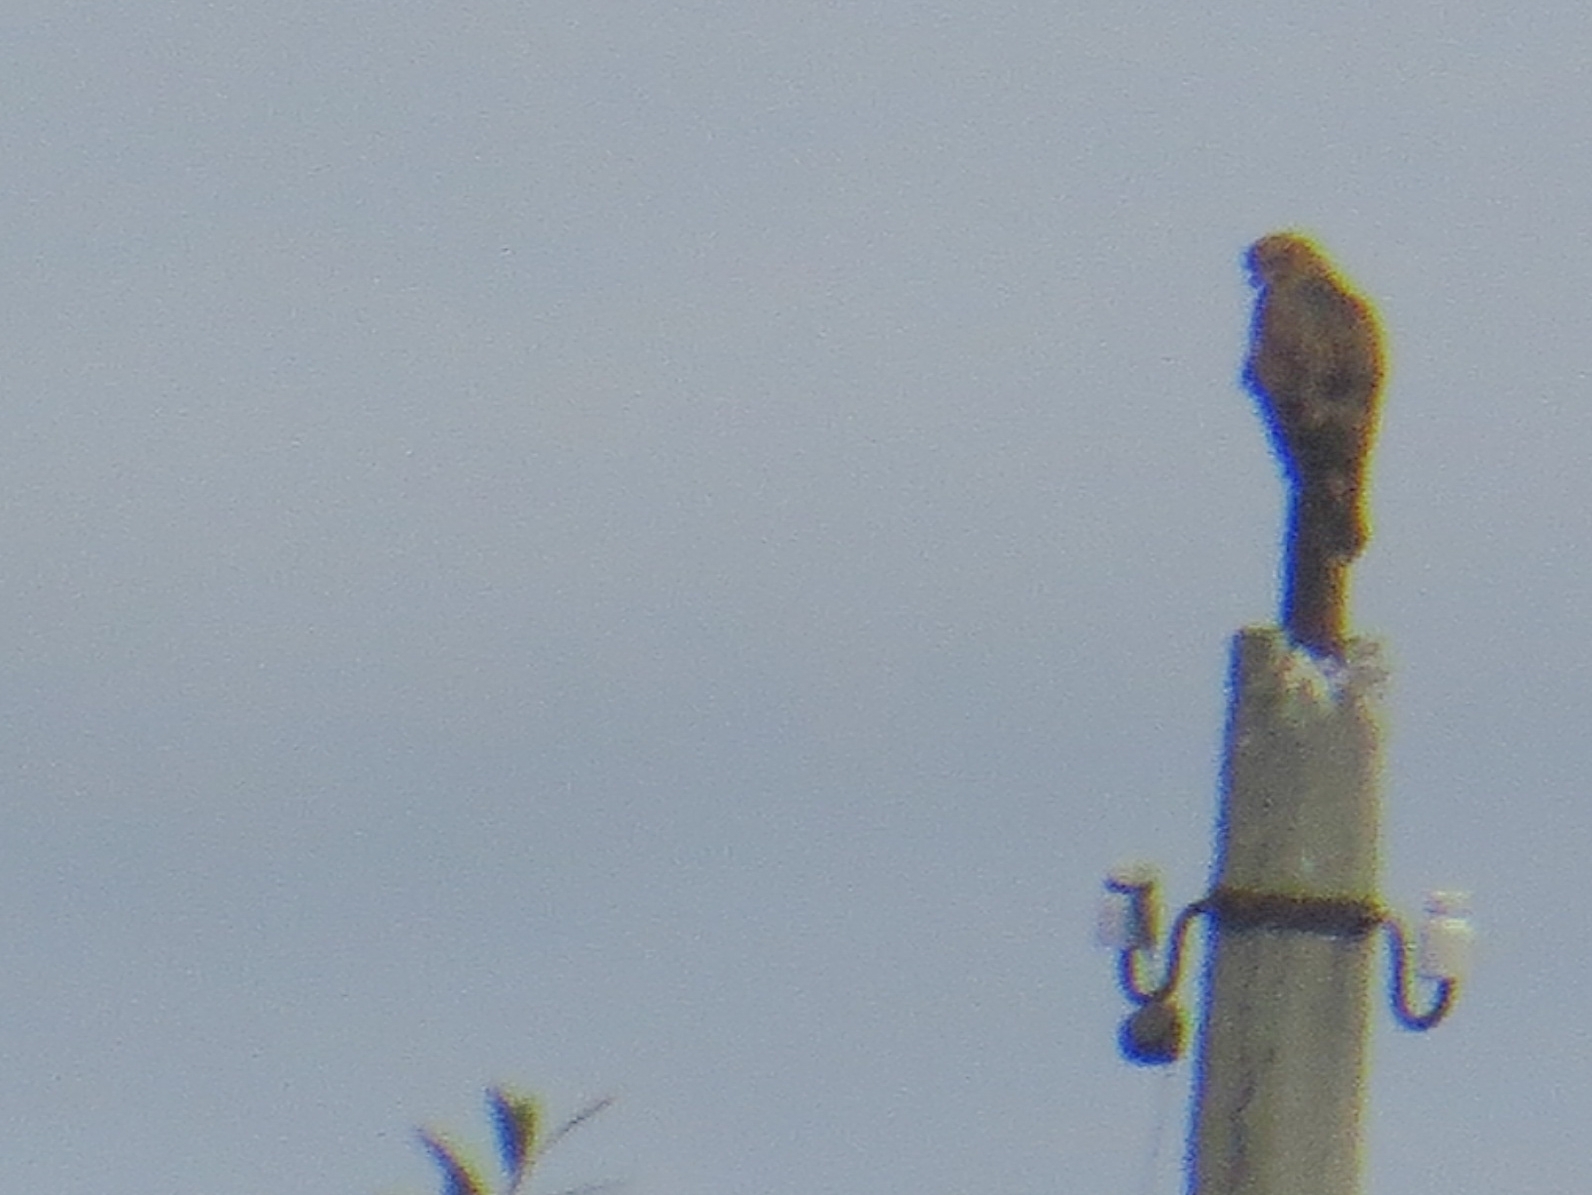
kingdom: Animalia
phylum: Chordata
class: Aves
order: Accipitriformes
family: Accipitridae
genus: Buteo
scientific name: Buteo buteo
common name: Common buzzard
